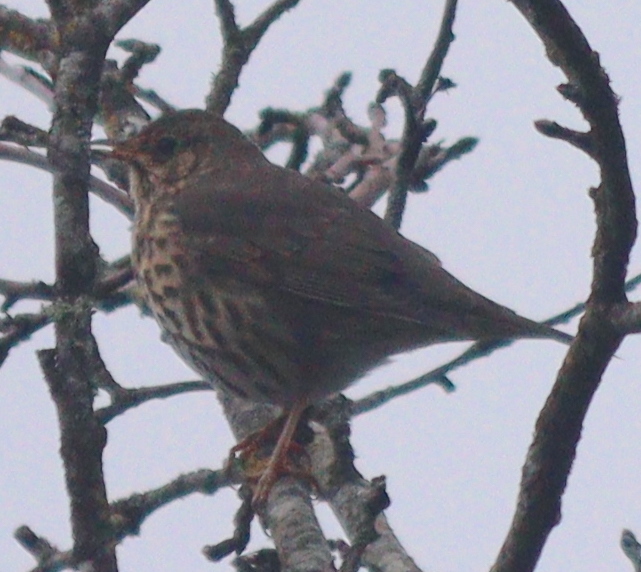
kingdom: Animalia
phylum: Chordata
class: Aves
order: Passeriformes
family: Turdidae
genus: Turdus
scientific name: Turdus philomelos
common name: Song thrush
